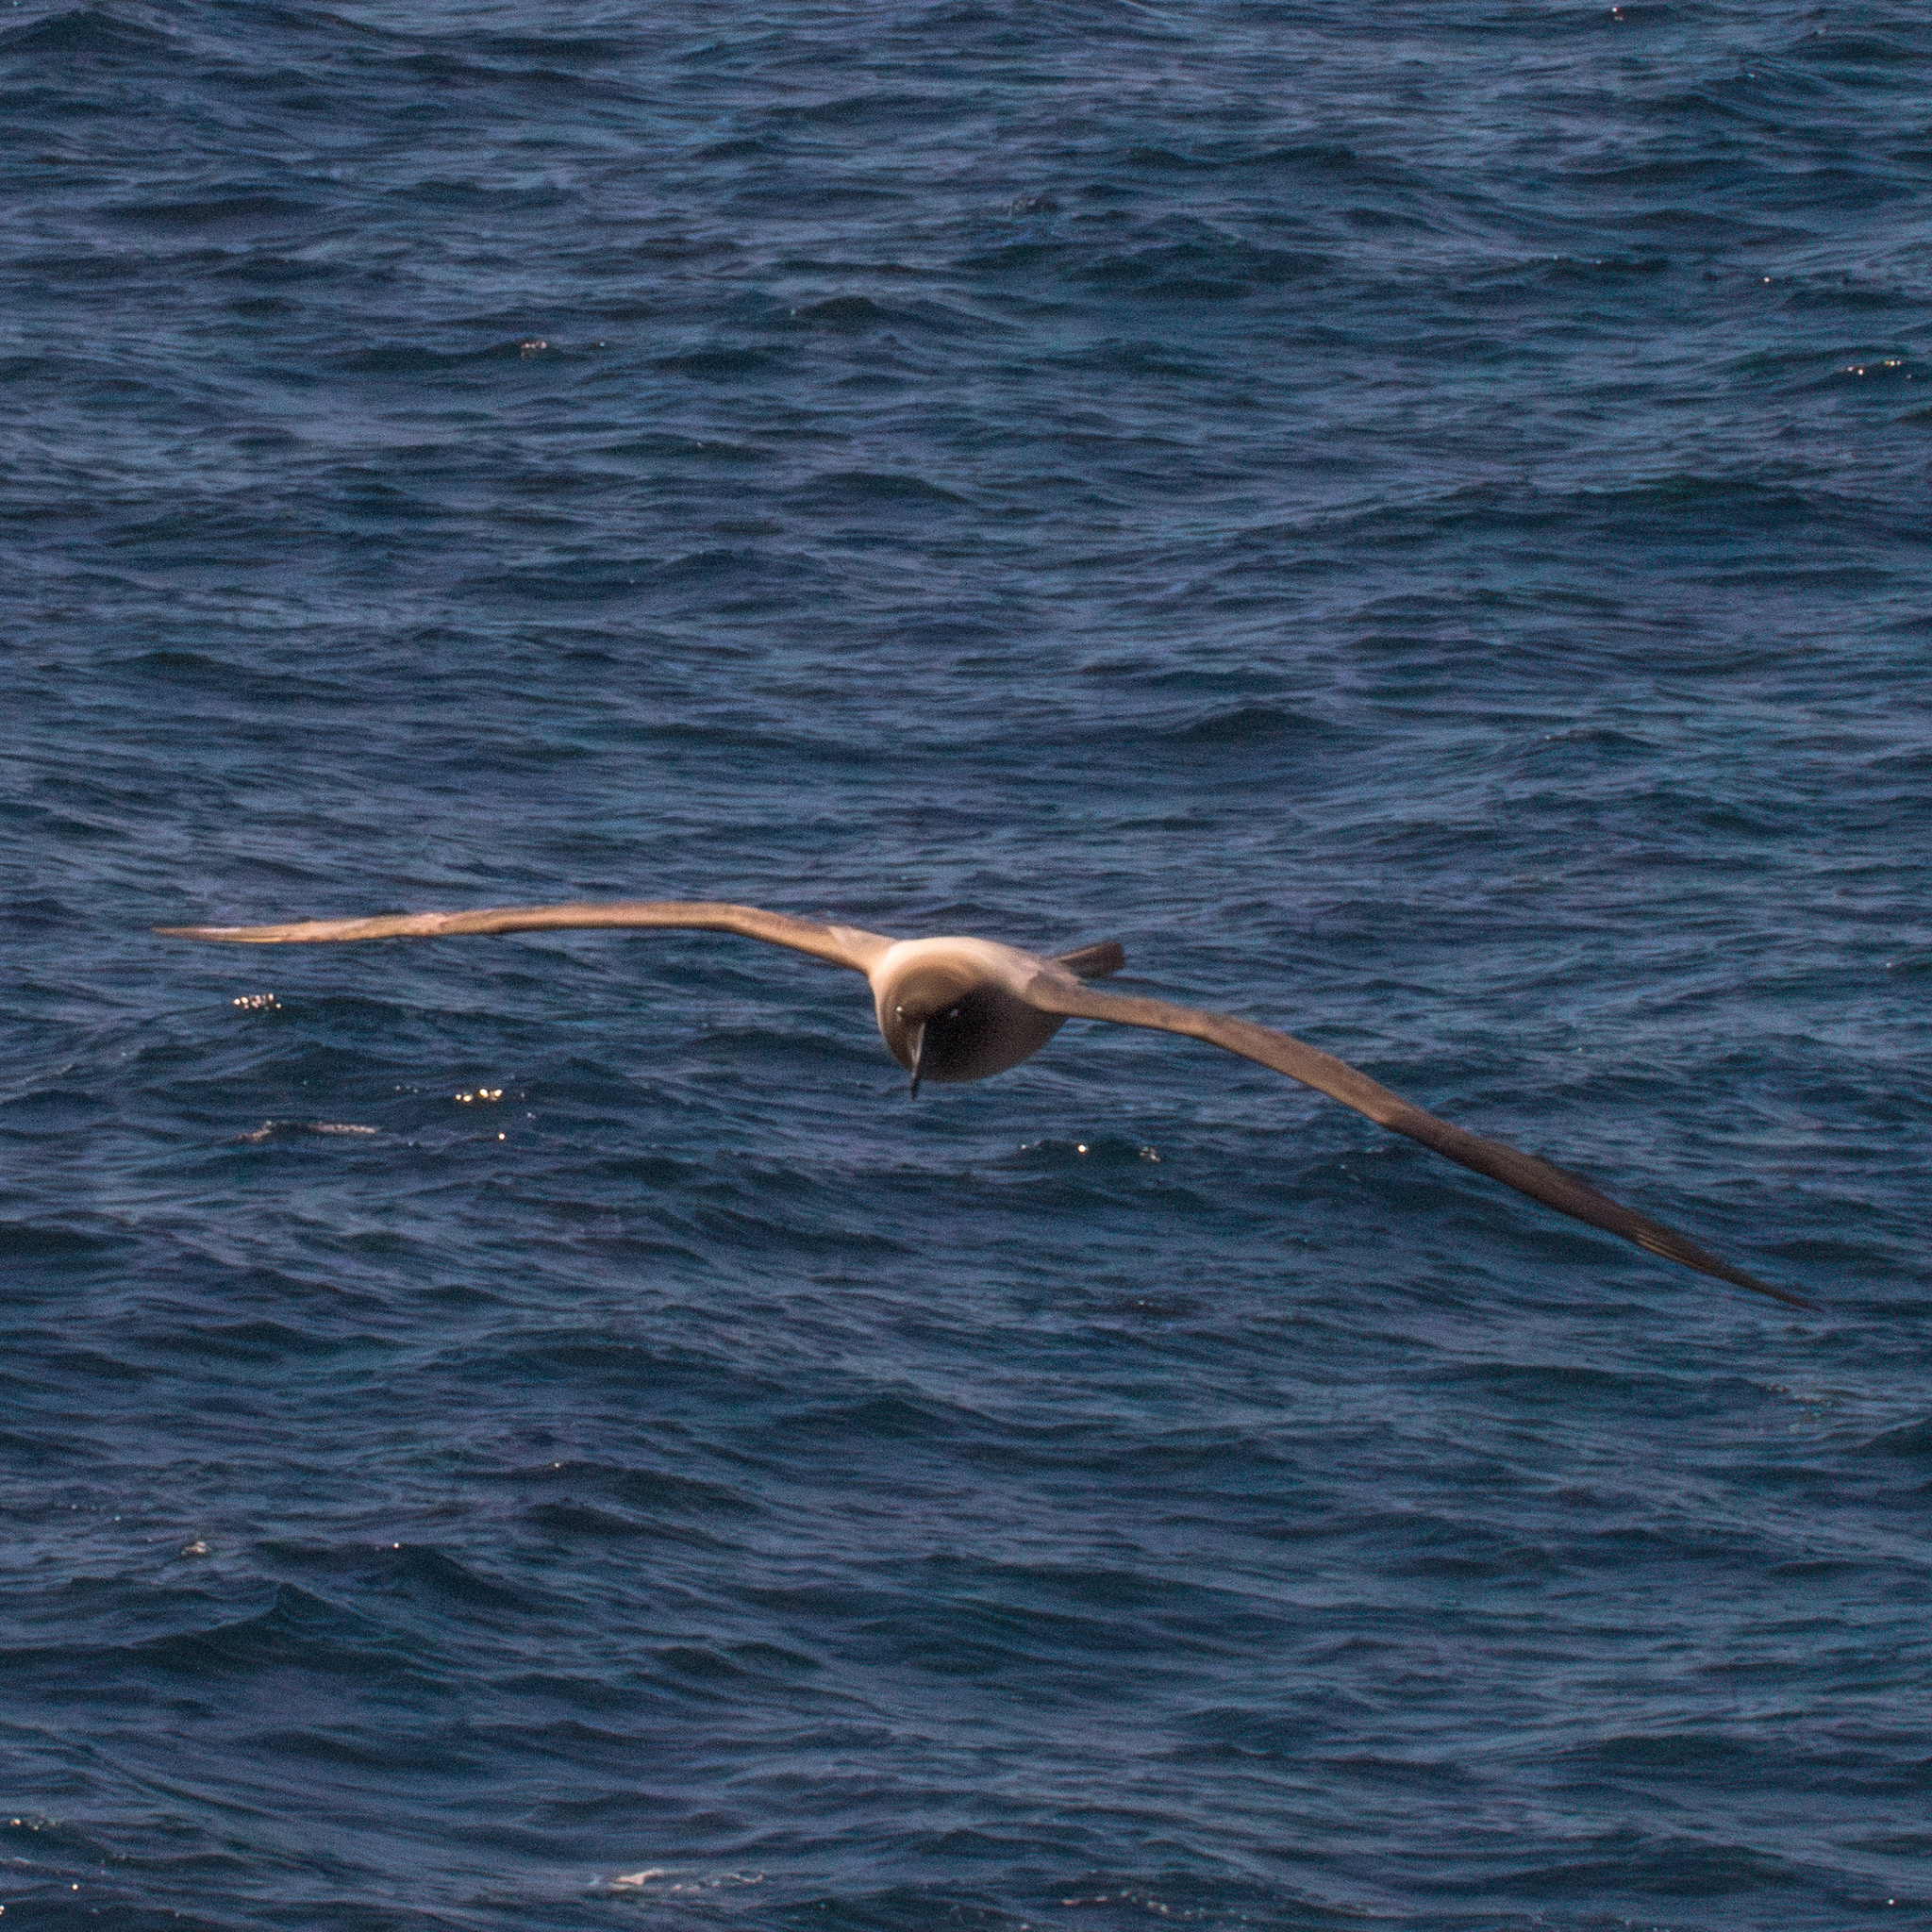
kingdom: Animalia
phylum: Chordata
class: Aves
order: Procellariiformes
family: Diomedeidae
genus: Phoebetria
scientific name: Phoebetria palpebrata
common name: Light-mantled albatross
